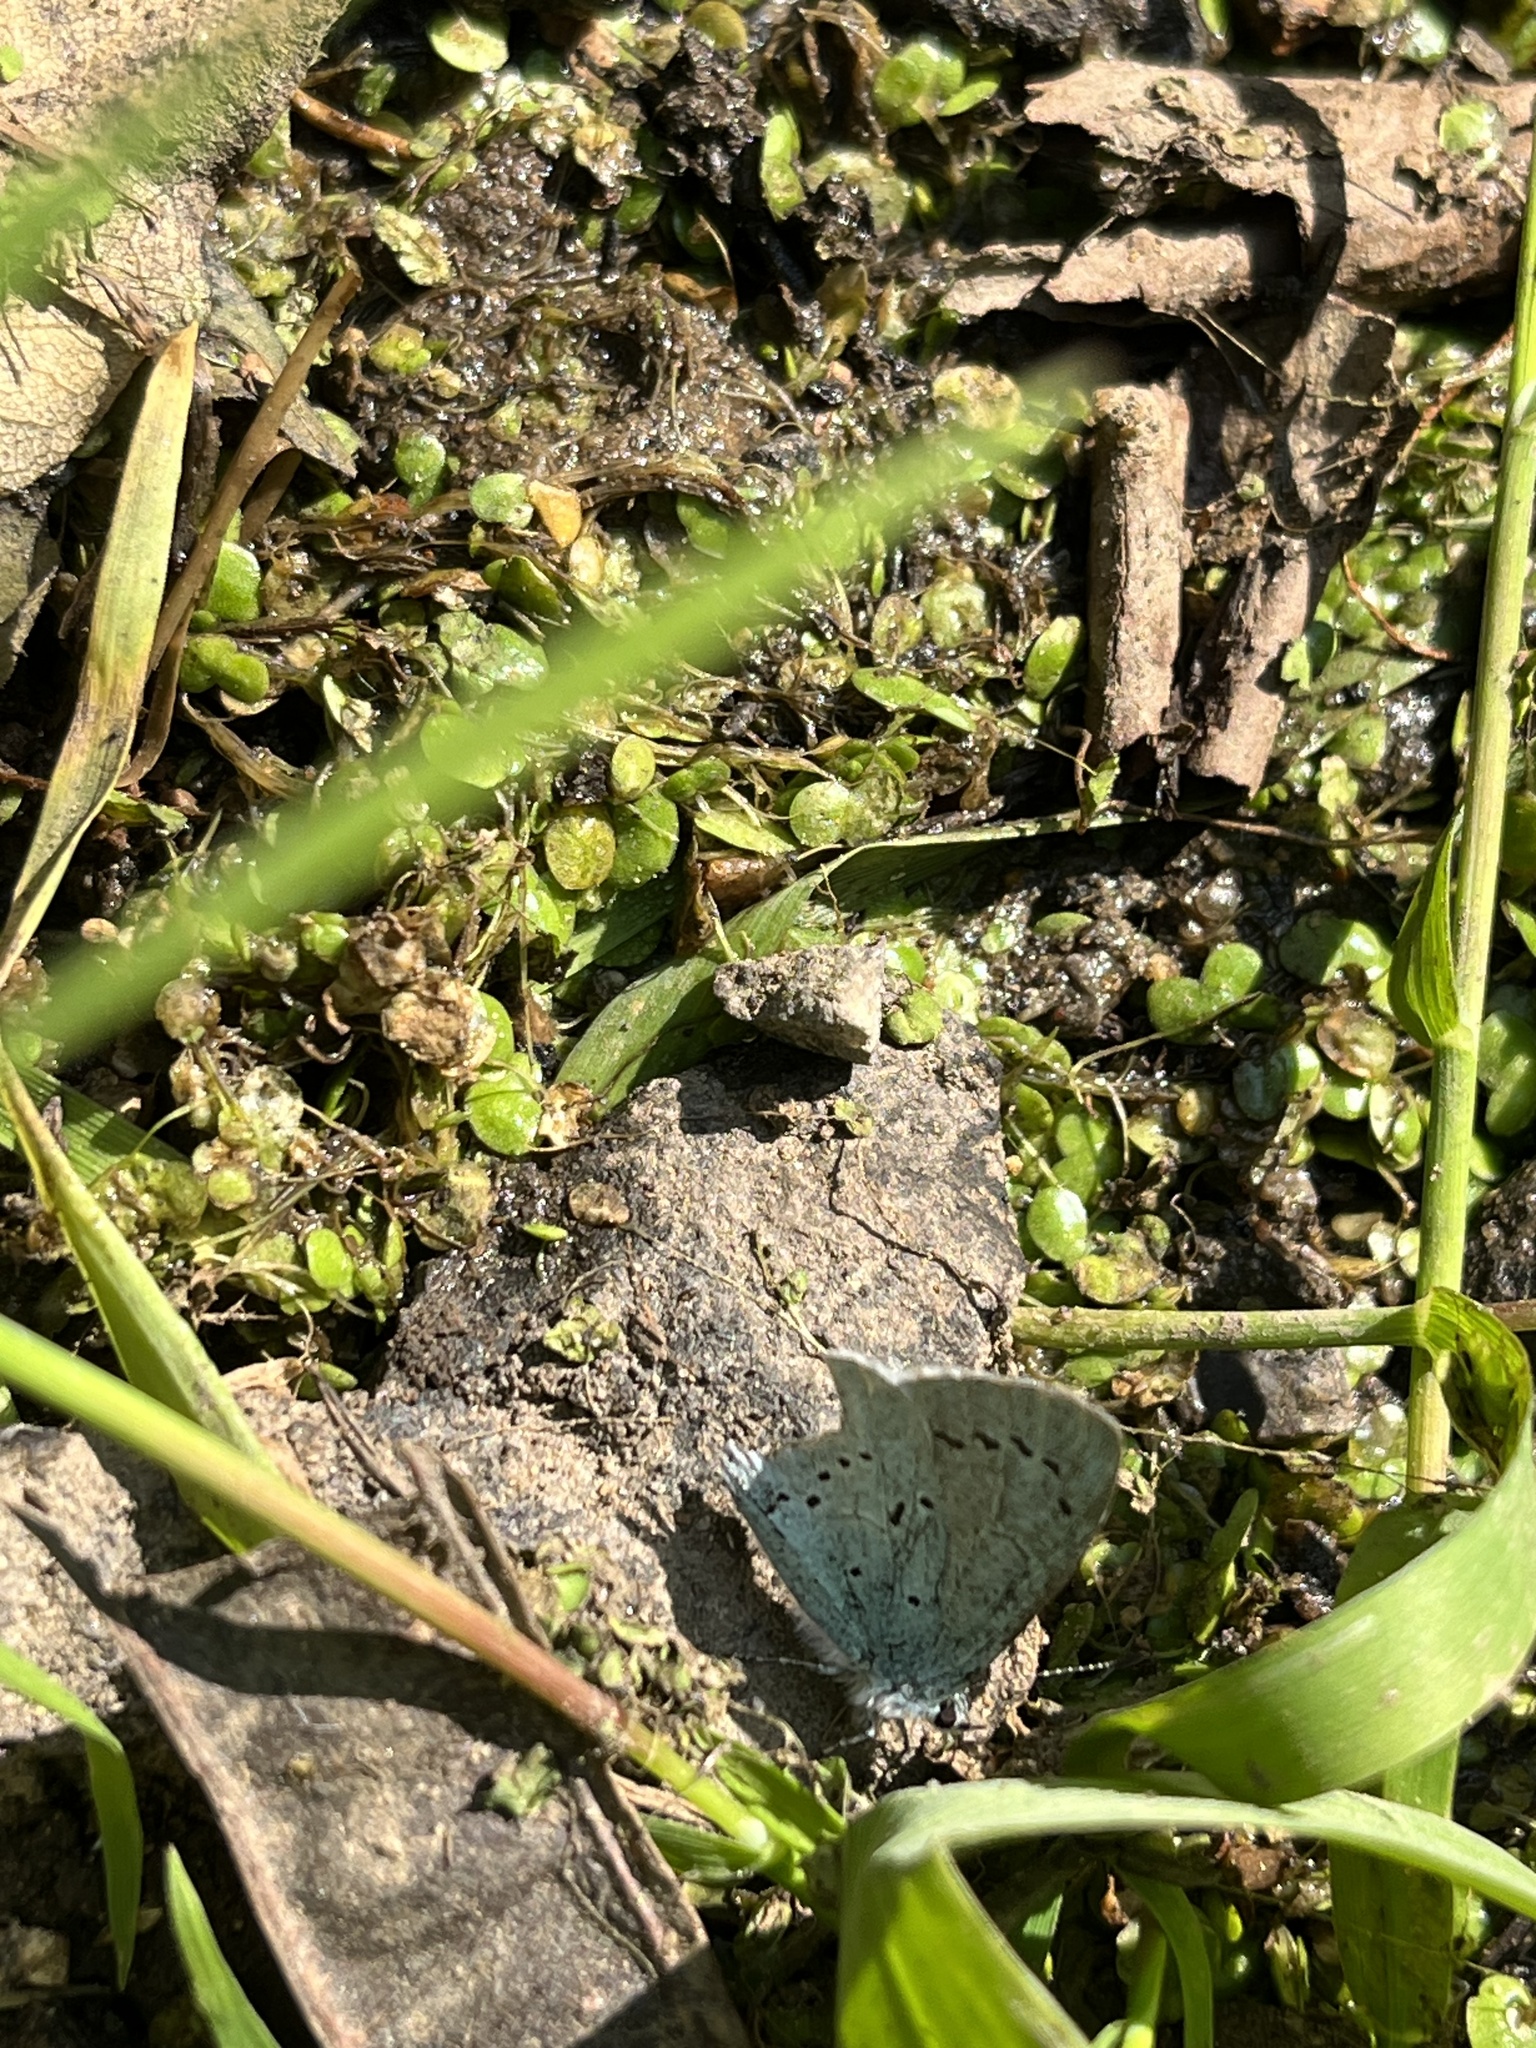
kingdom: Animalia
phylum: Arthropoda
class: Insecta
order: Lepidoptera
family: Lycaenidae
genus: Celastrina
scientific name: Celastrina argiolus
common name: Holly blue
